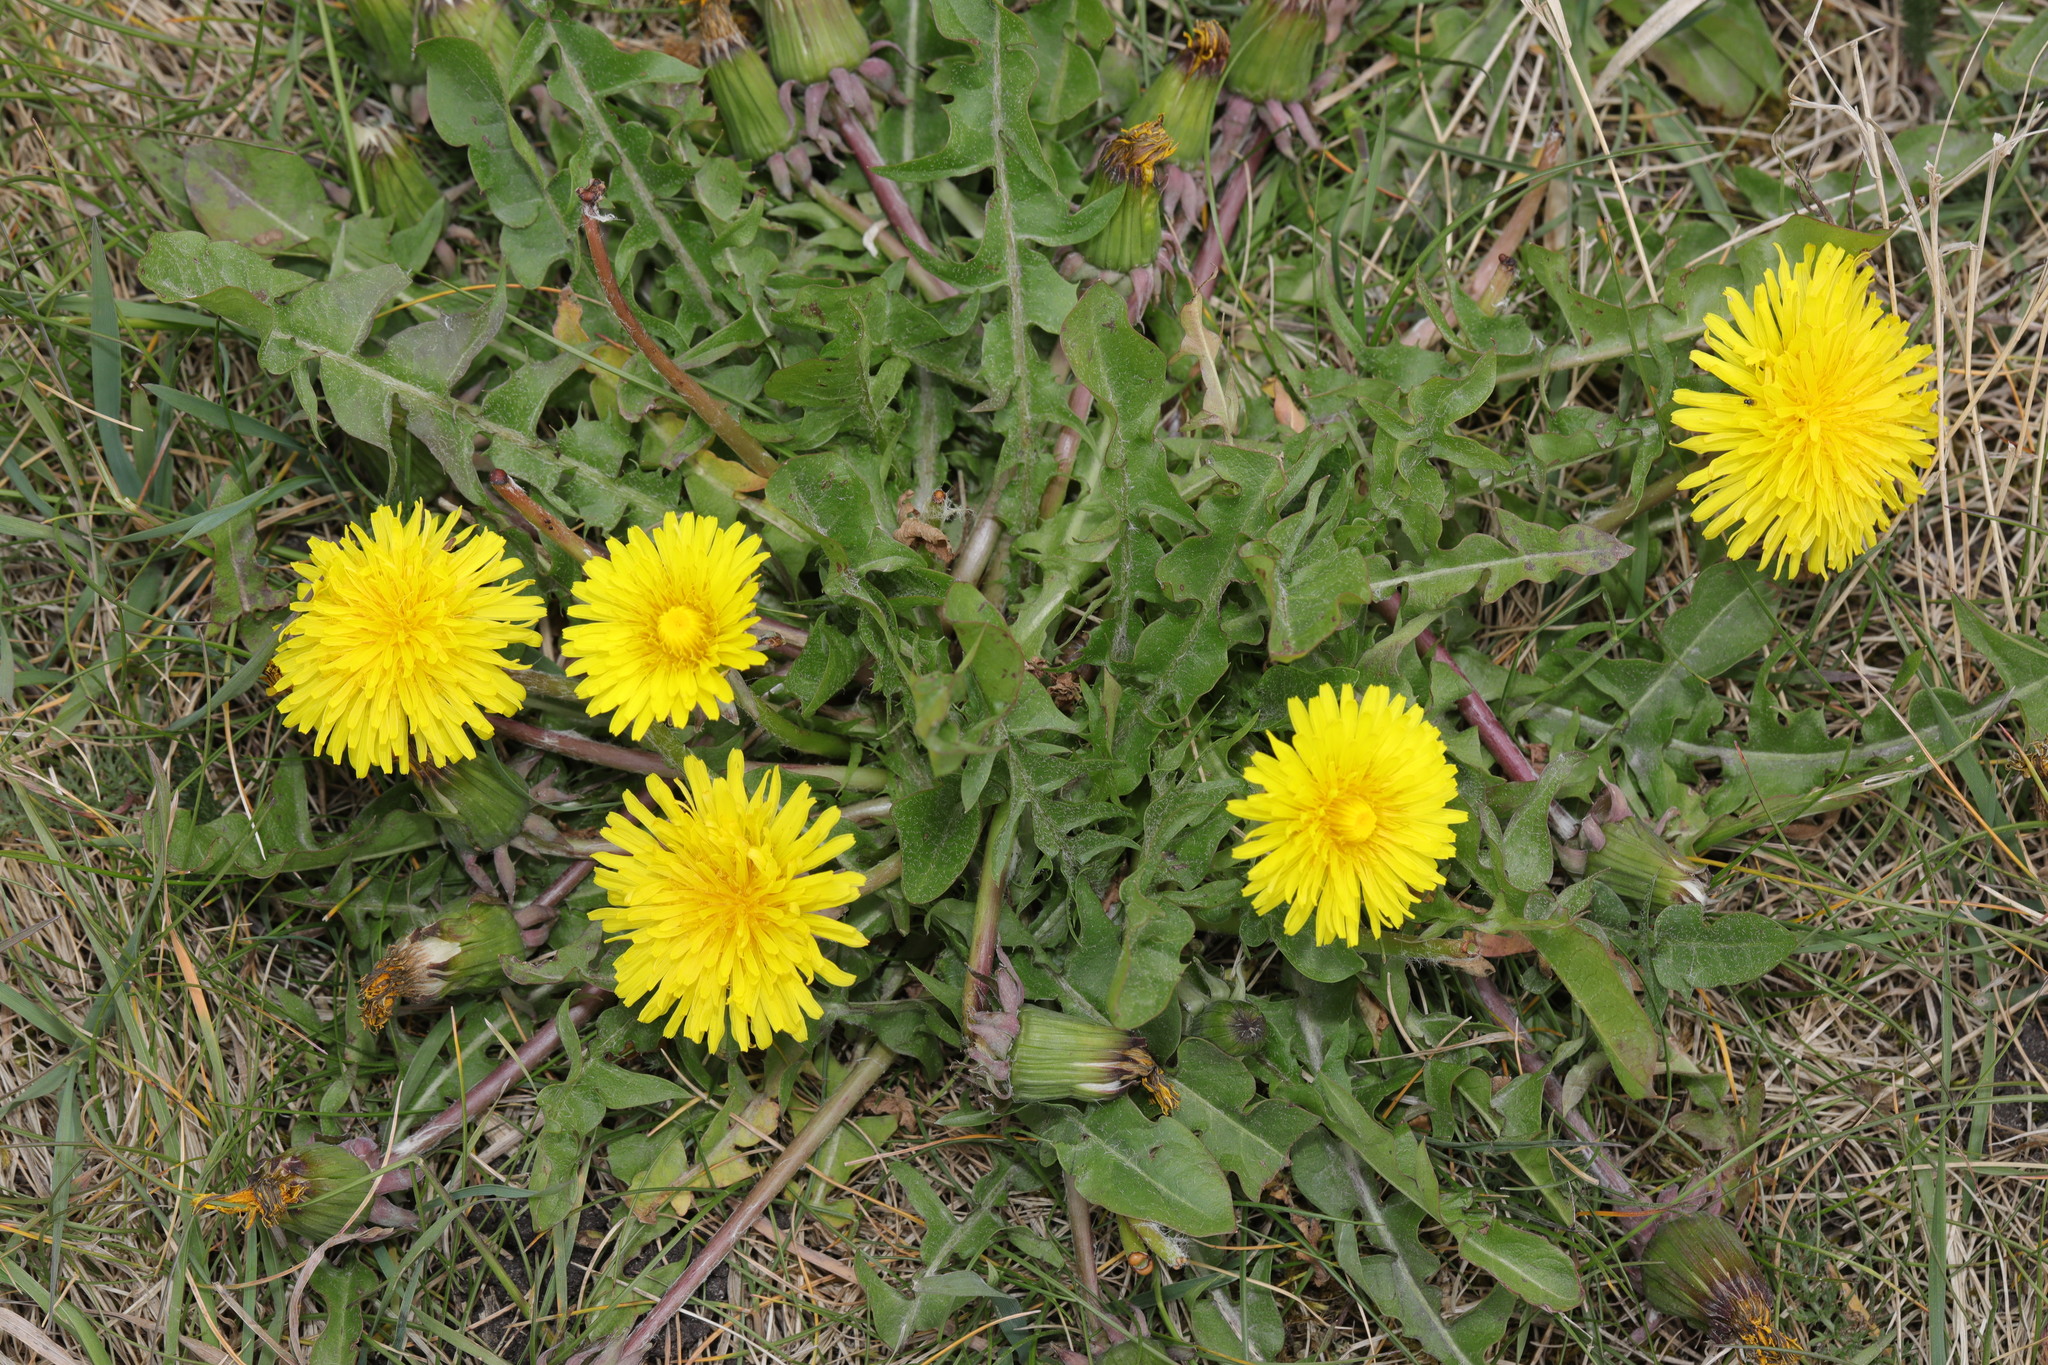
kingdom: Plantae
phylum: Tracheophyta
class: Magnoliopsida
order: Asterales
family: Asteraceae
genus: Taraxacum
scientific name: Taraxacum officinale
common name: Common dandelion
